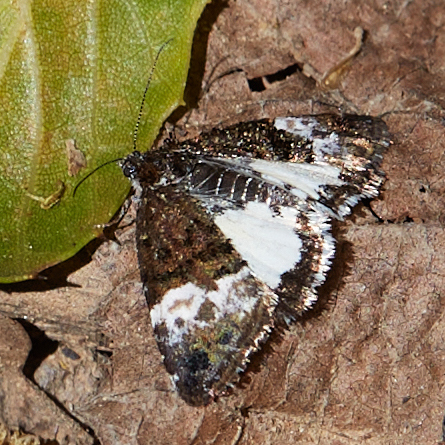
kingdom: Animalia
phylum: Arthropoda
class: Insecta
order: Lepidoptera
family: Noctuidae
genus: Annaphila
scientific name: Annaphila diva
